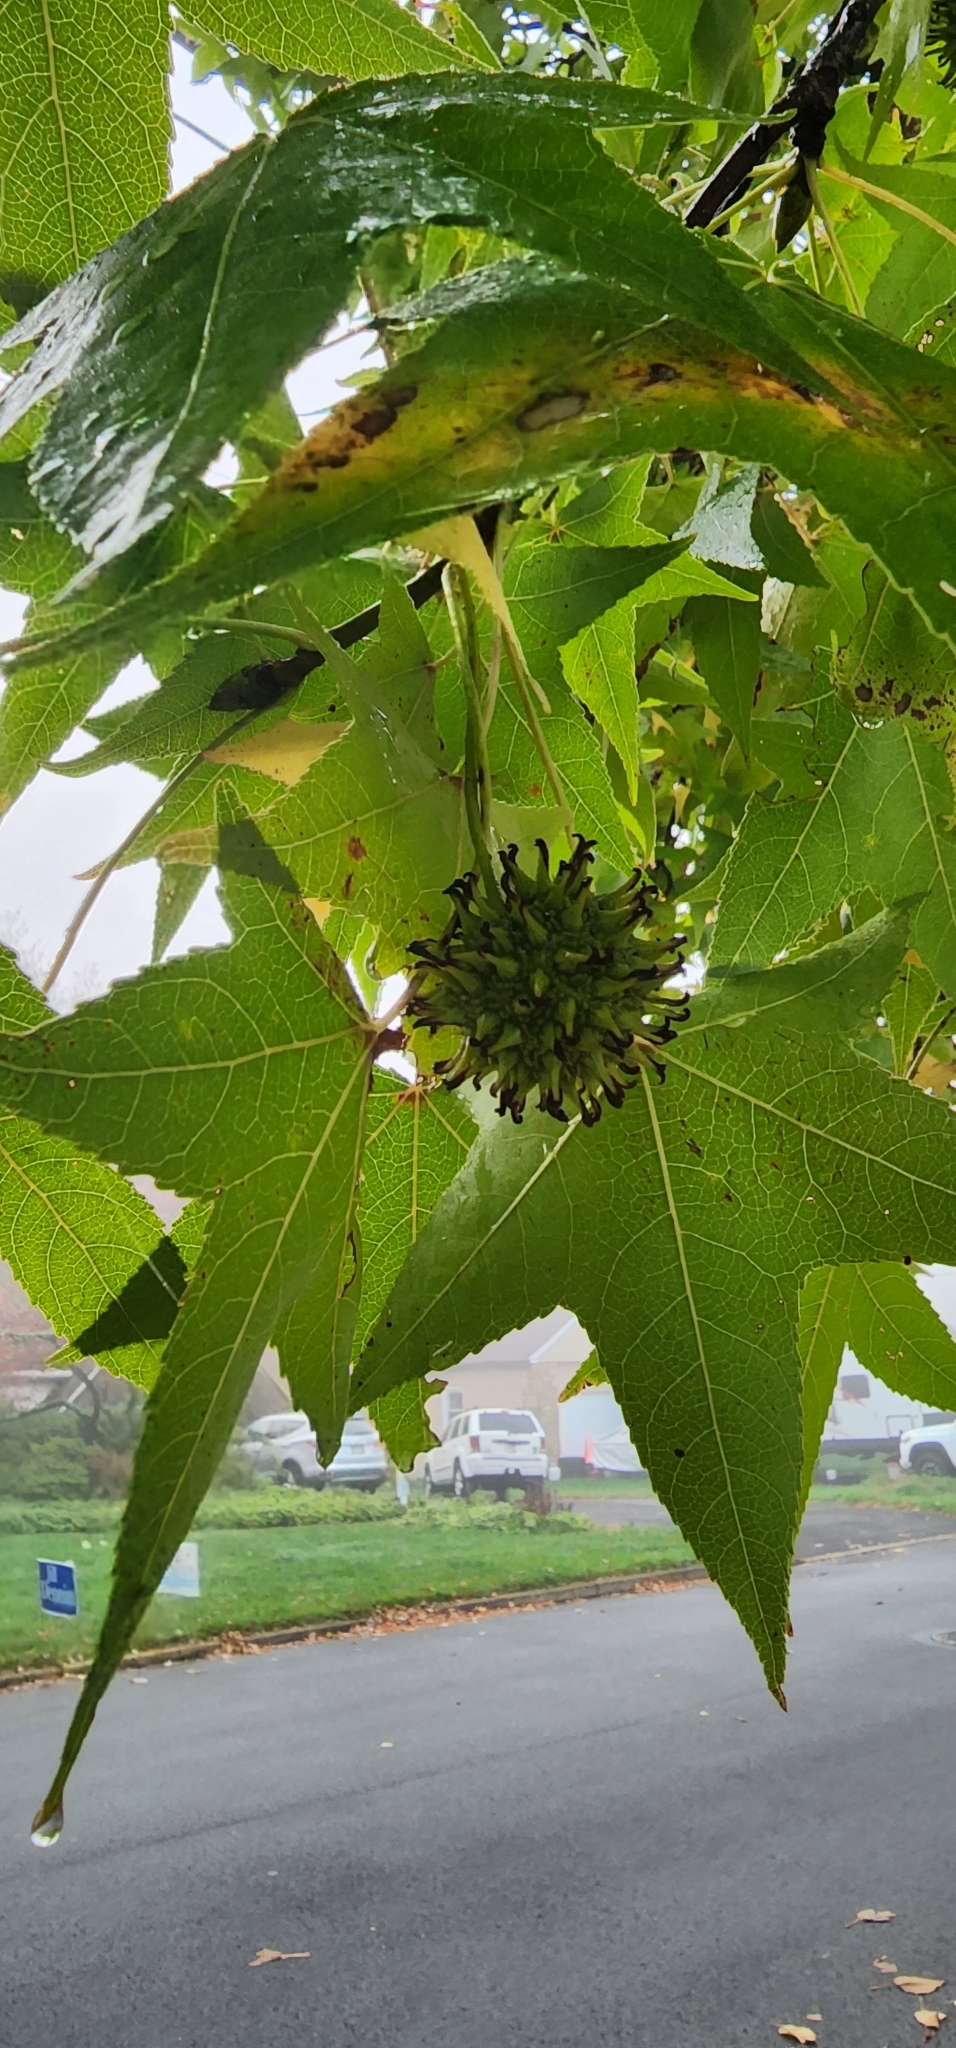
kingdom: Plantae
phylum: Tracheophyta
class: Magnoliopsida
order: Saxifragales
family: Altingiaceae
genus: Liquidambar
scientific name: Liquidambar styraciflua
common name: Sweet gum
